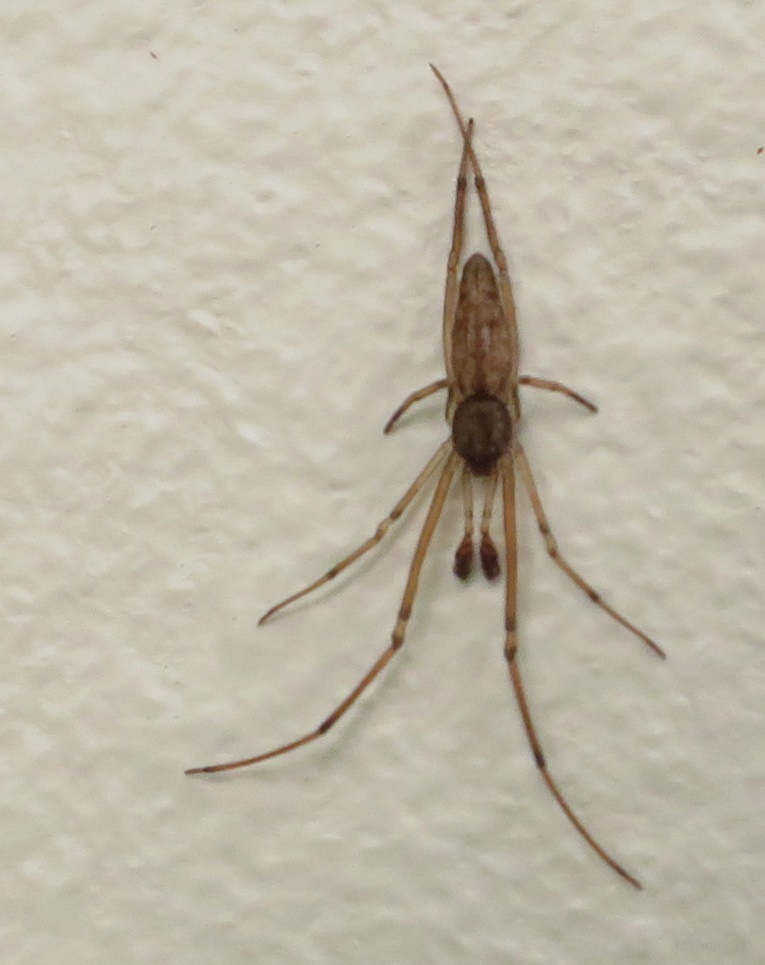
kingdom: Animalia
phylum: Arthropoda
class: Arachnida
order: Araneae
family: Theridiidae
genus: Moneta
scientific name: Moneta conifera
